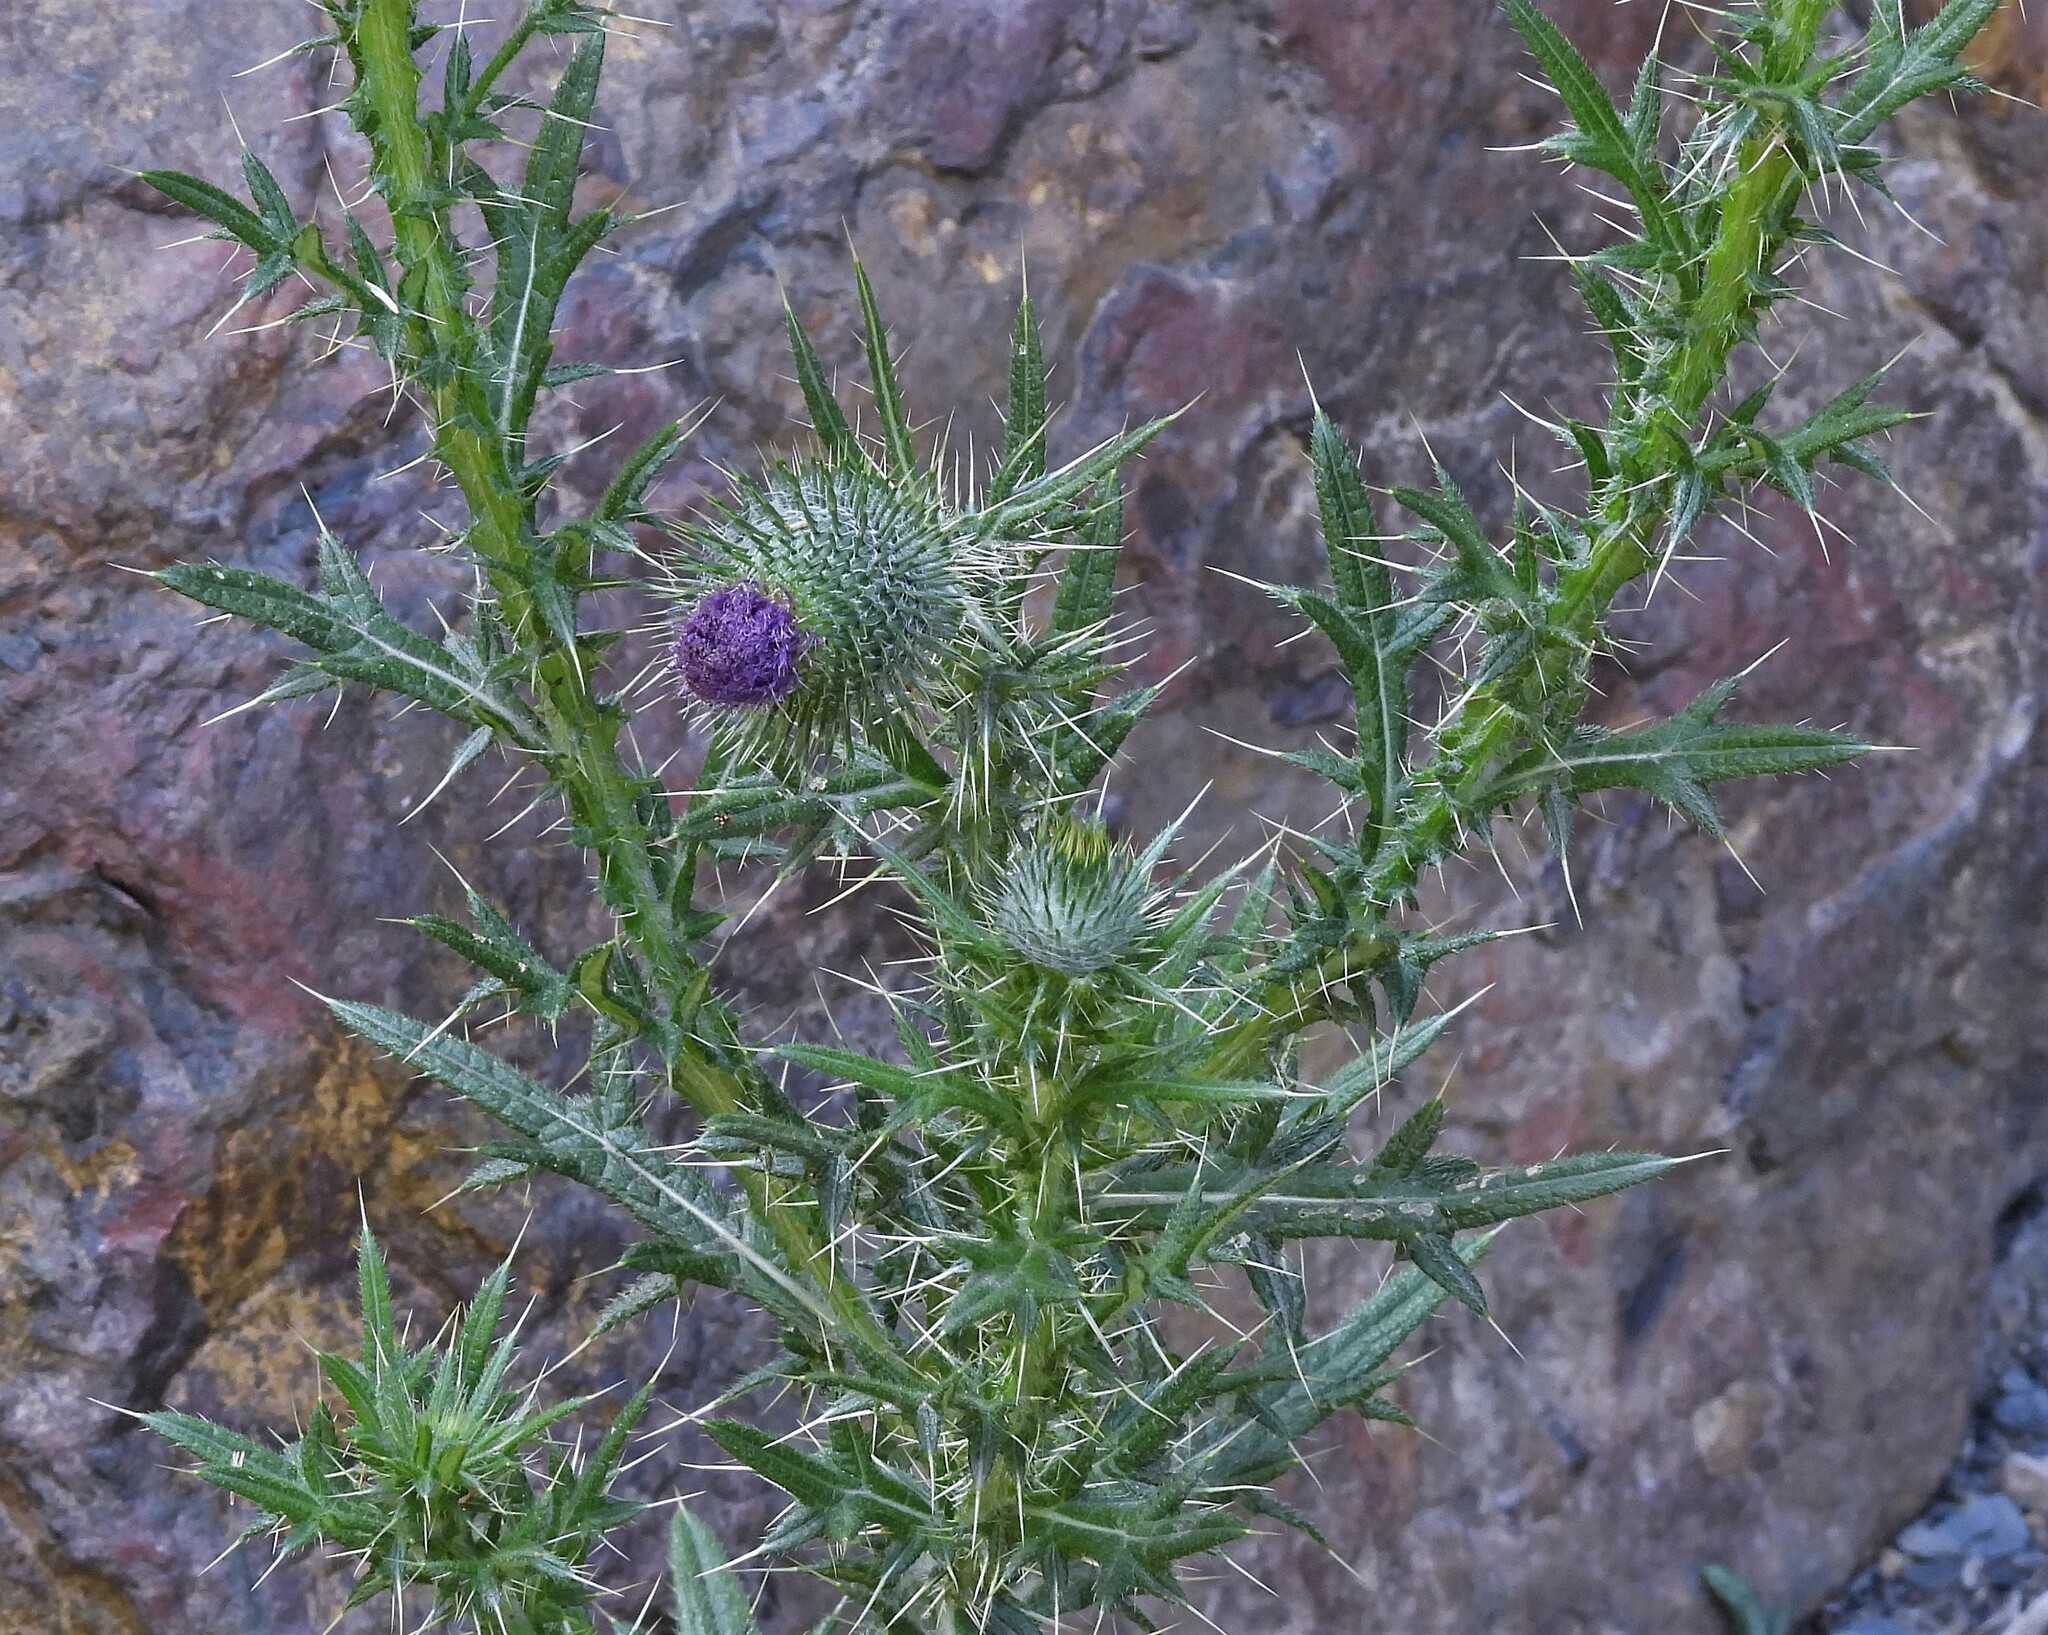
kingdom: Plantae
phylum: Tracheophyta
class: Magnoliopsida
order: Asterales
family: Asteraceae
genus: Cirsium
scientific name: Cirsium vulgare
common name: Bull thistle
